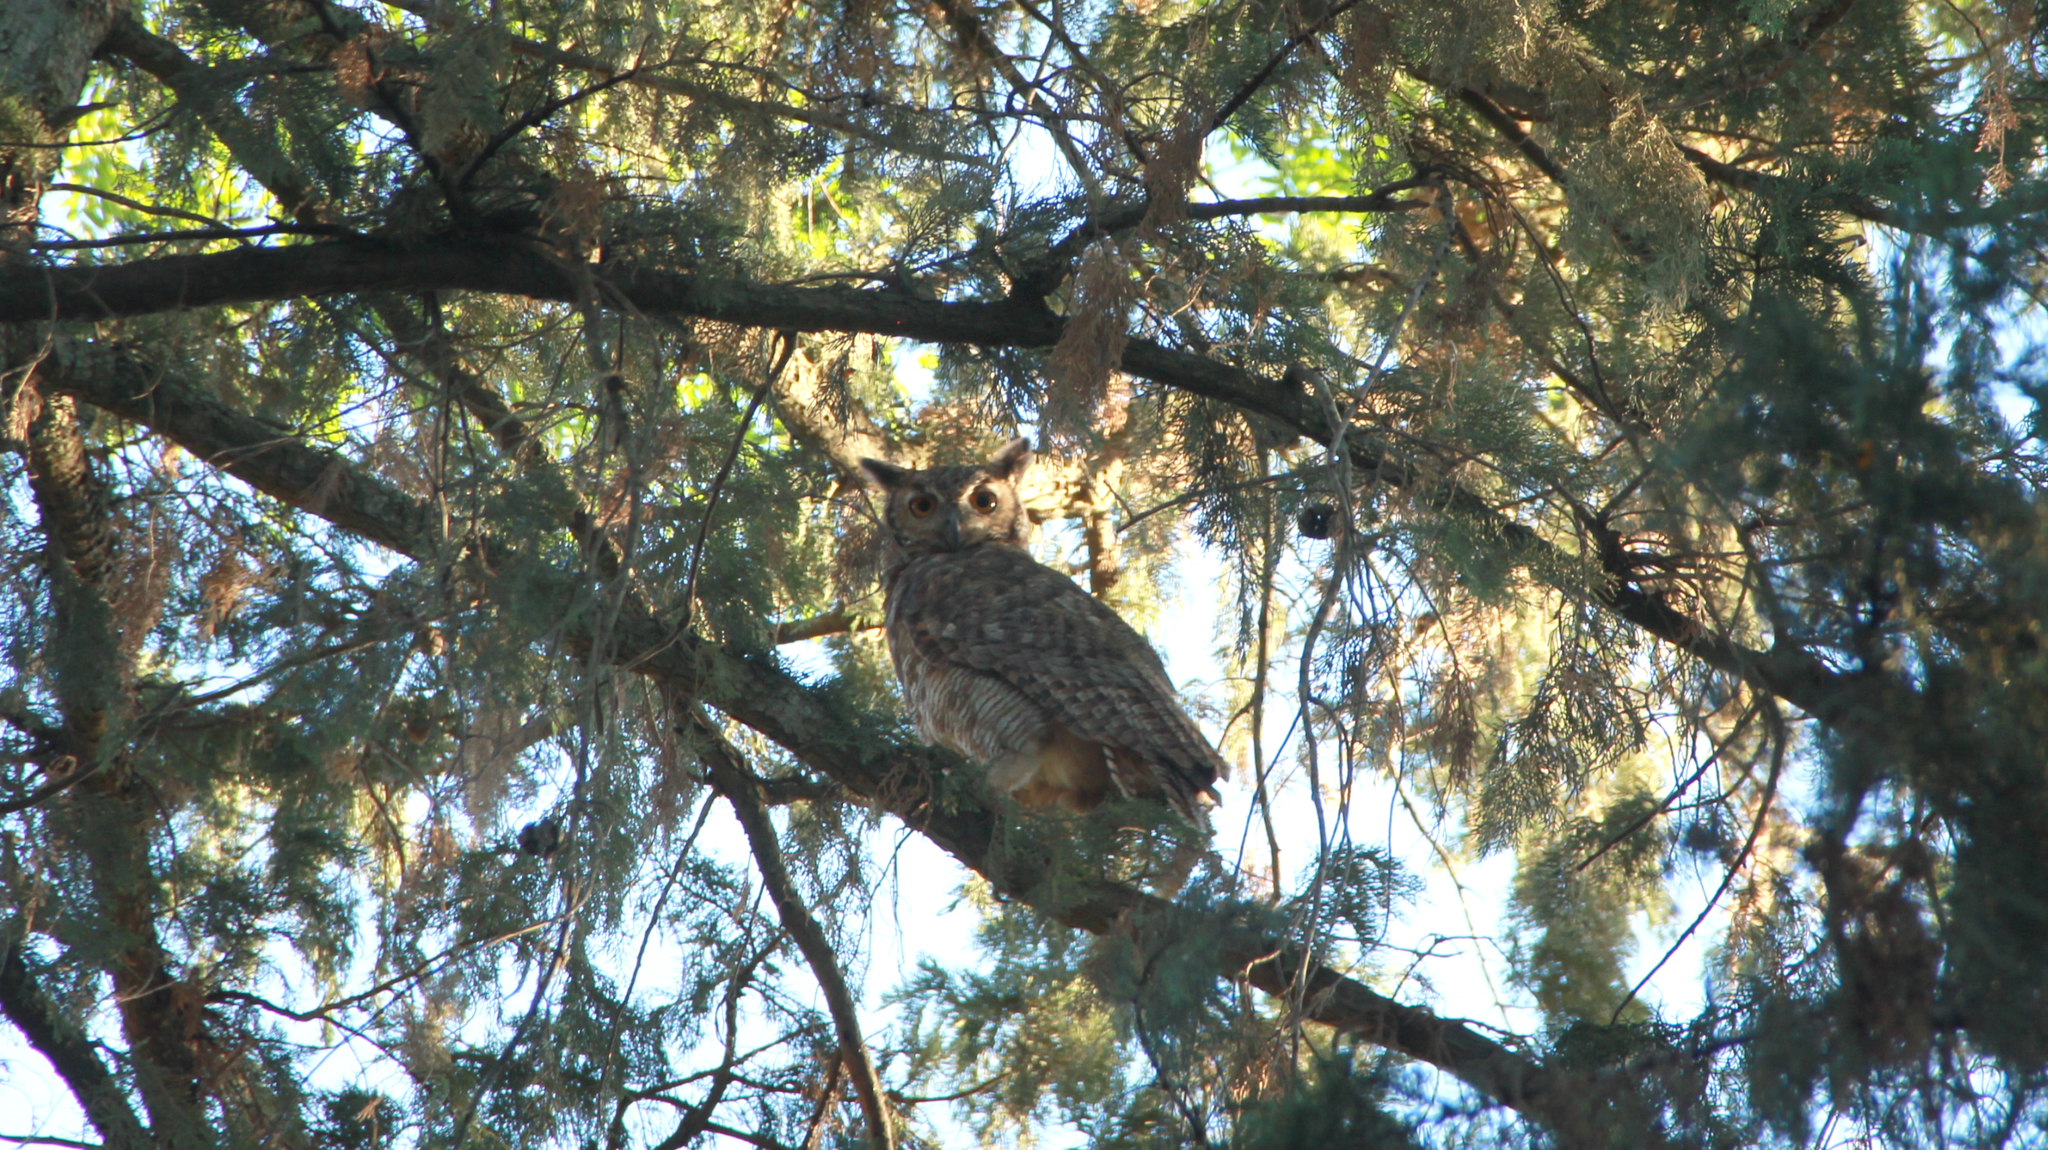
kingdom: Animalia
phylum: Chordata
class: Aves
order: Strigiformes
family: Strigidae
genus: Bubo
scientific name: Bubo virginianus
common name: Great horned owl
